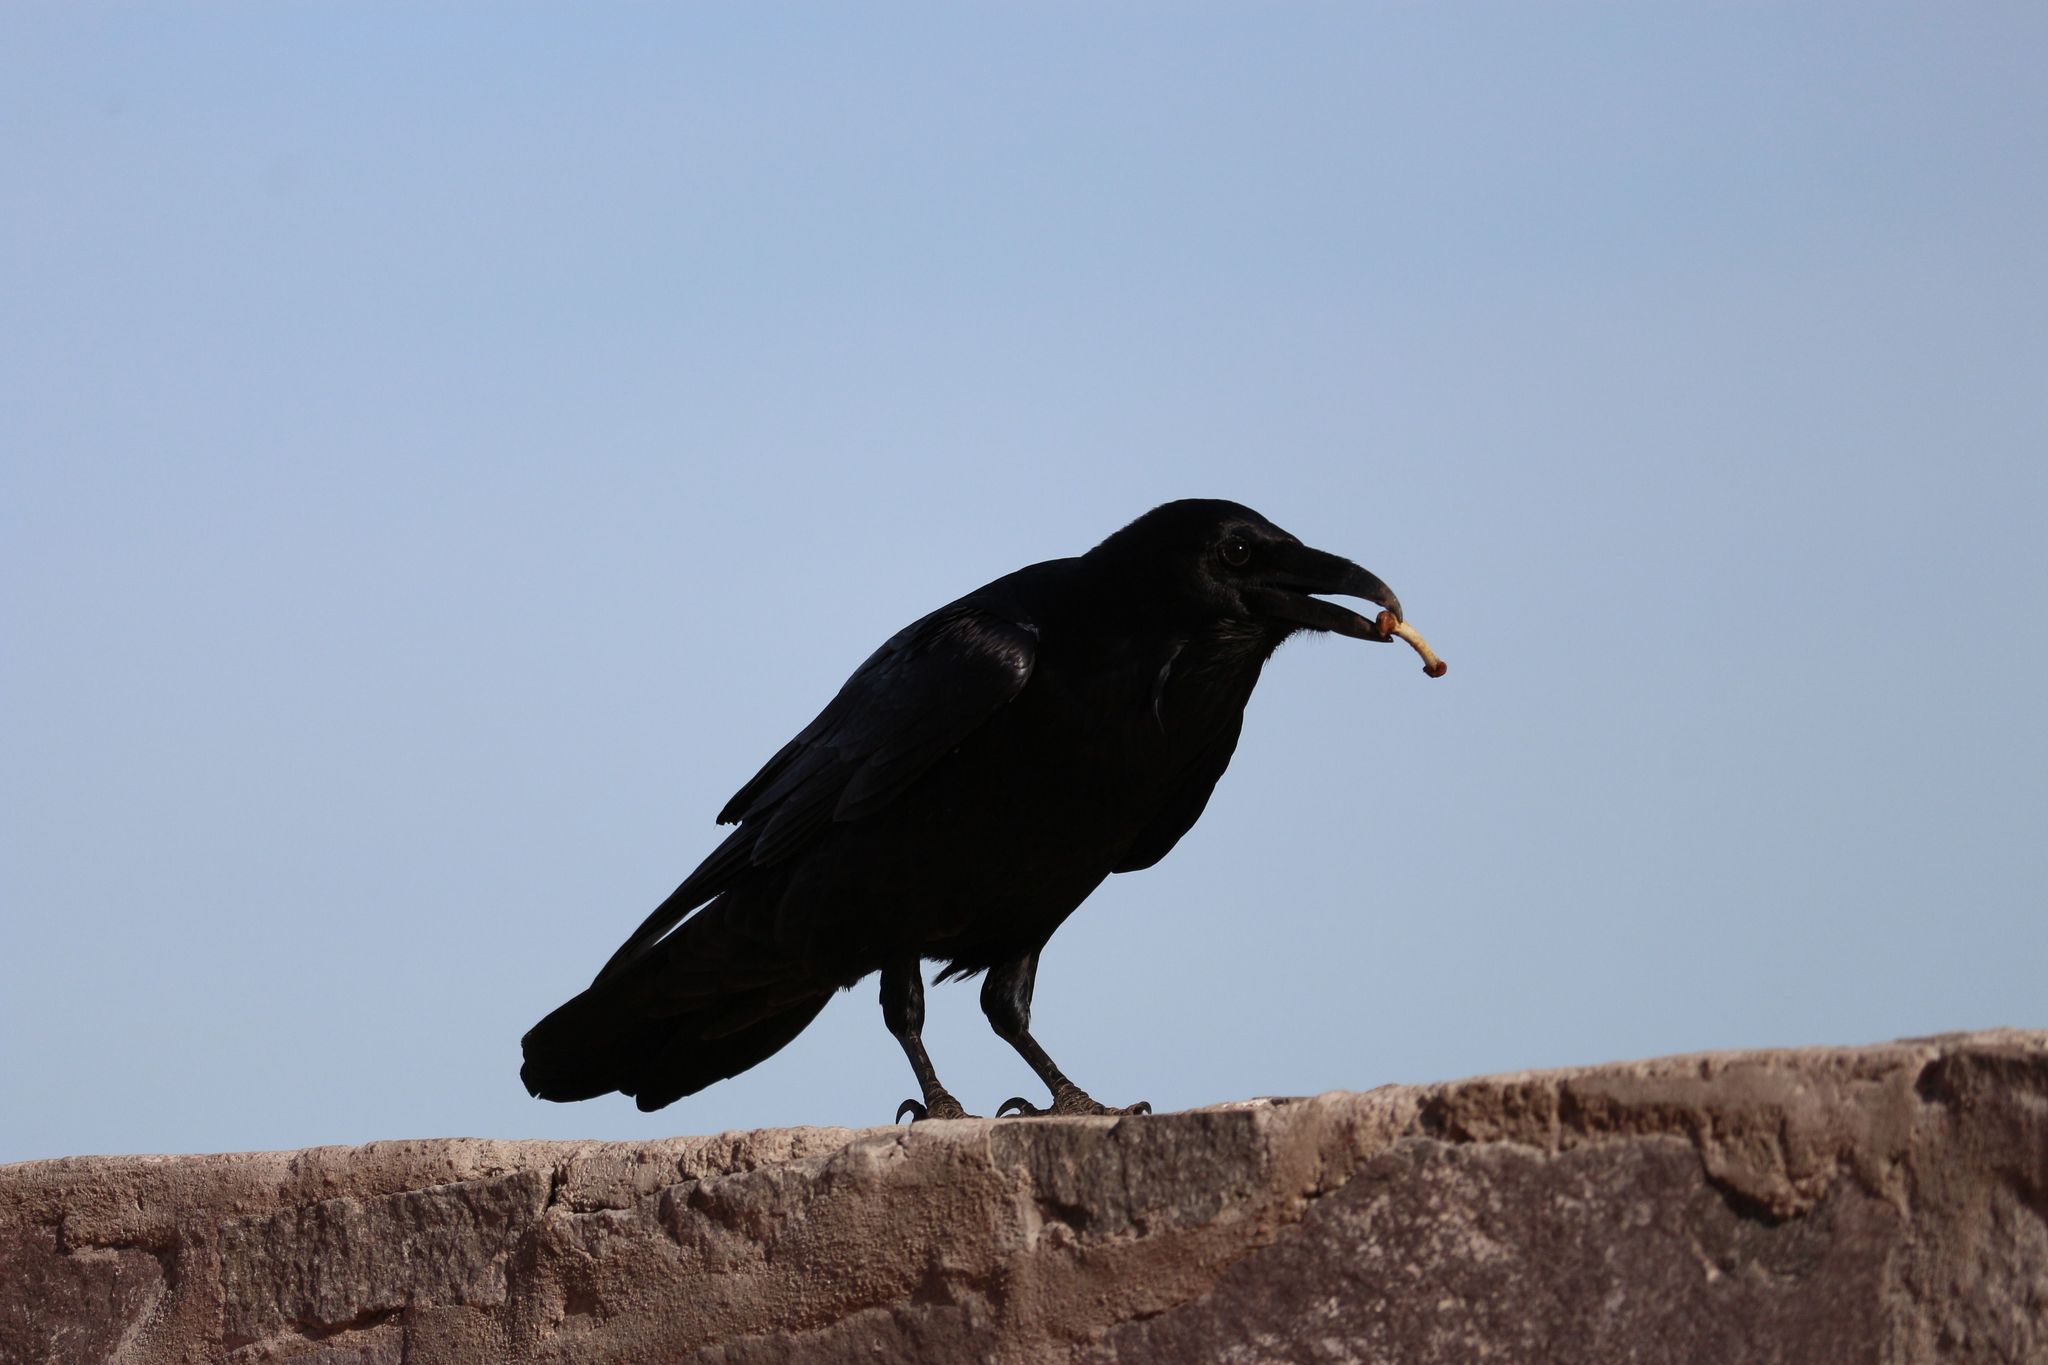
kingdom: Animalia
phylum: Chordata
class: Aves
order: Passeriformes
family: Corvidae
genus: Corvus
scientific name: Corvus corax
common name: Common raven
